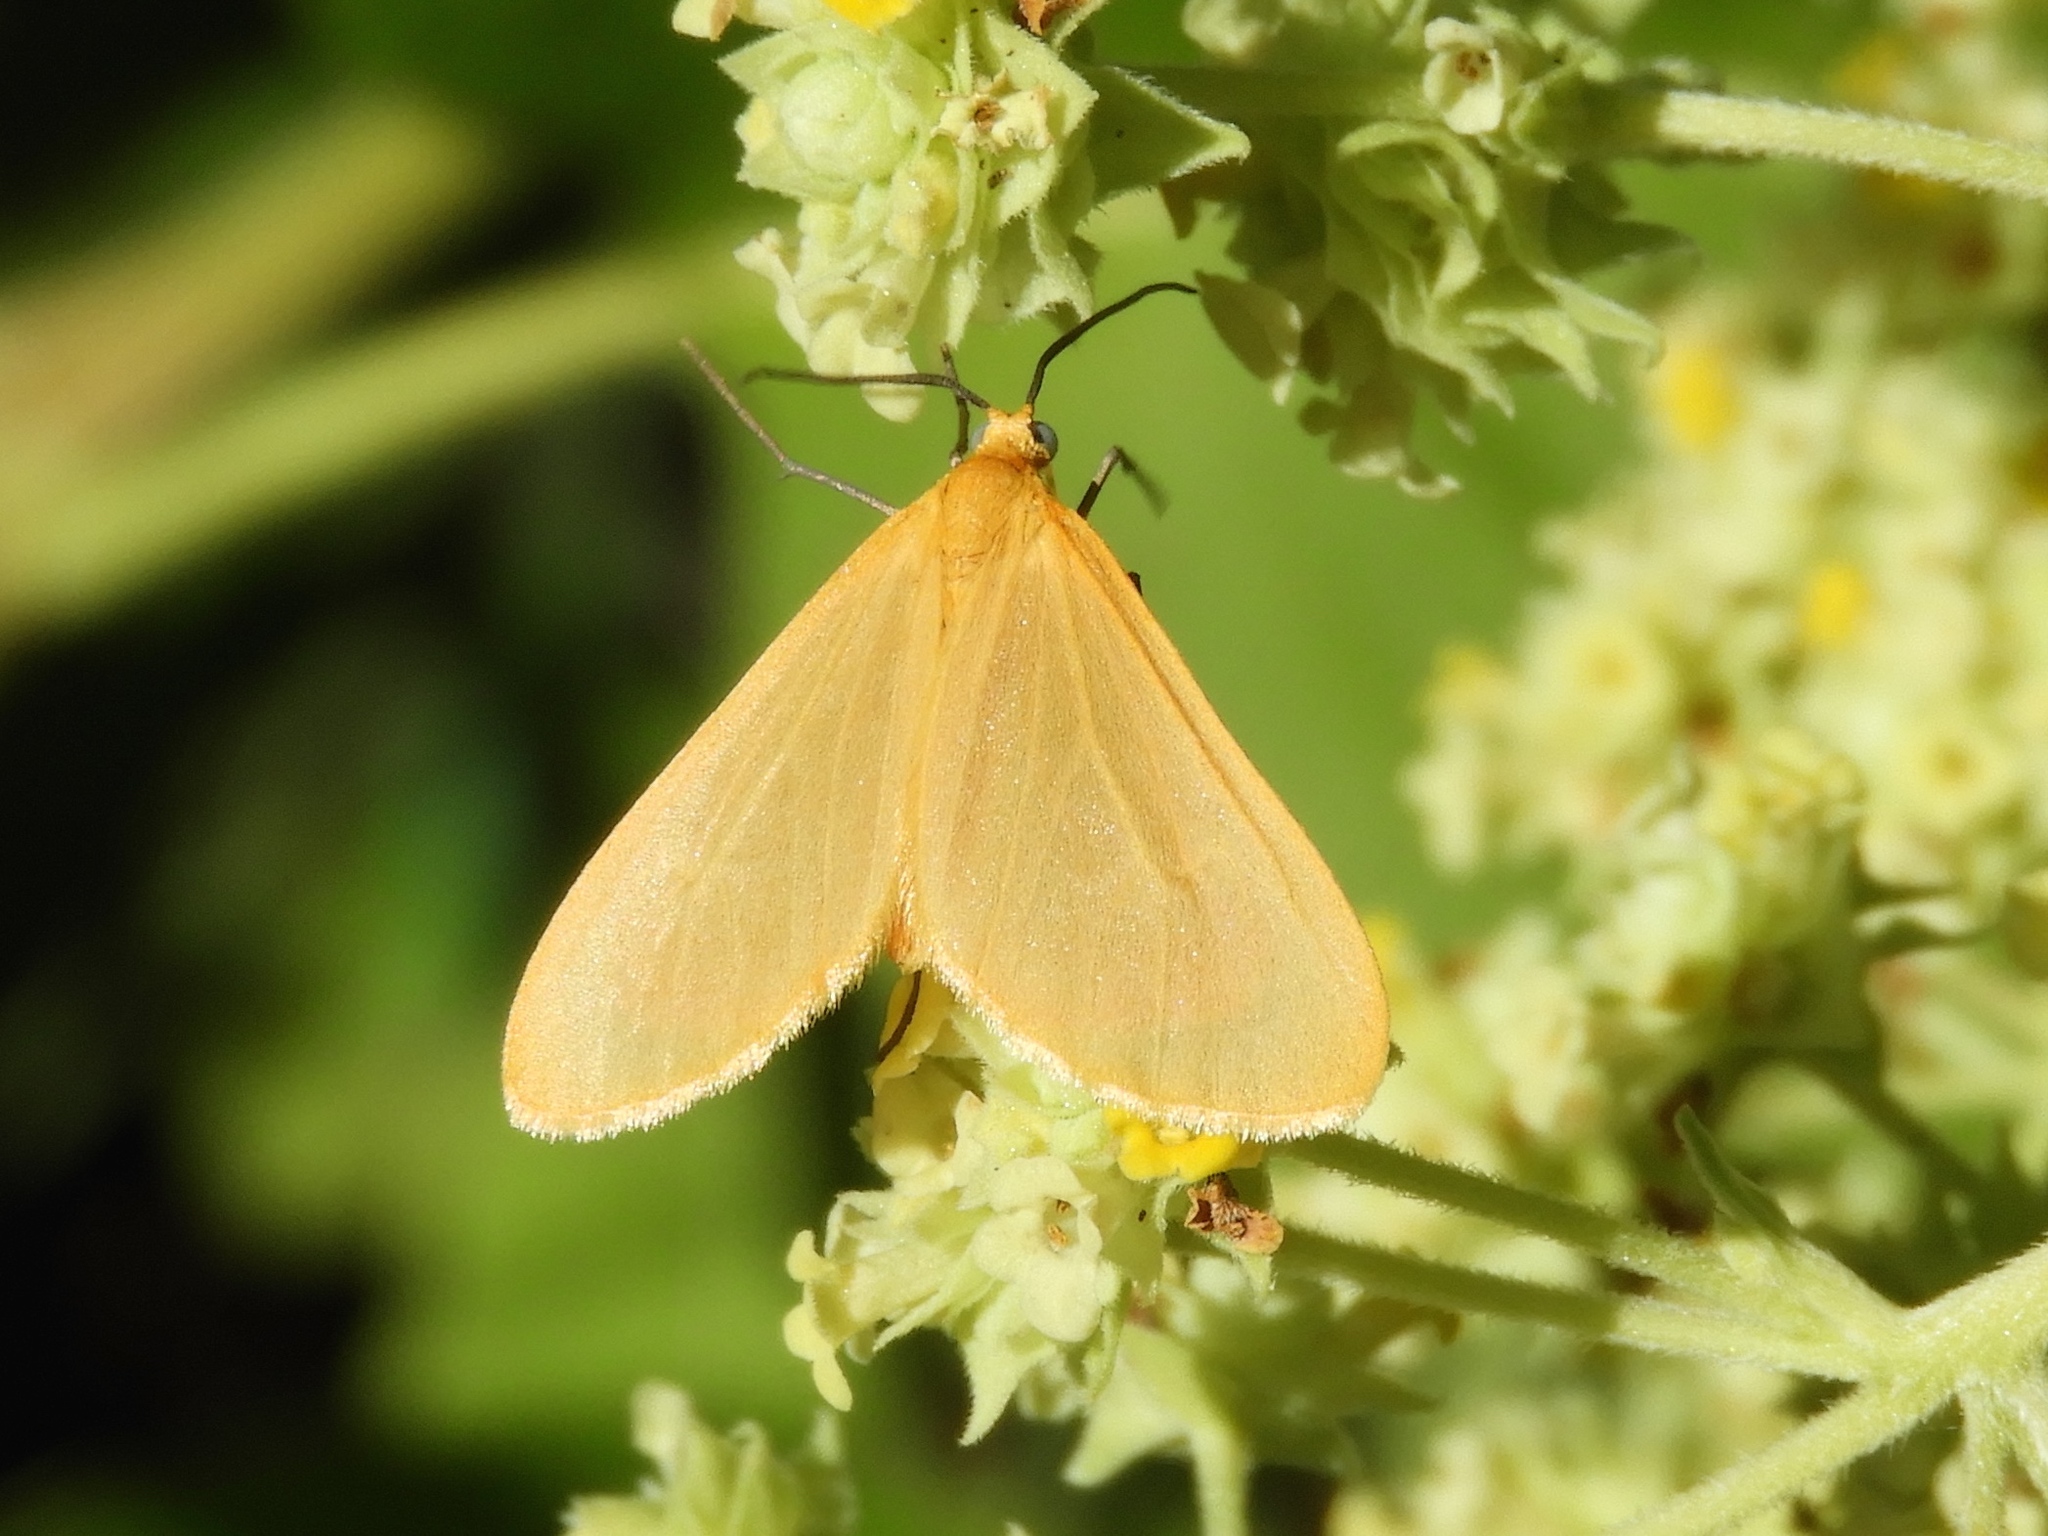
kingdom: Animalia
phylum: Arthropoda
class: Insecta
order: Lepidoptera
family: Geometridae
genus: Eubaphe
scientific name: Eubaphe
